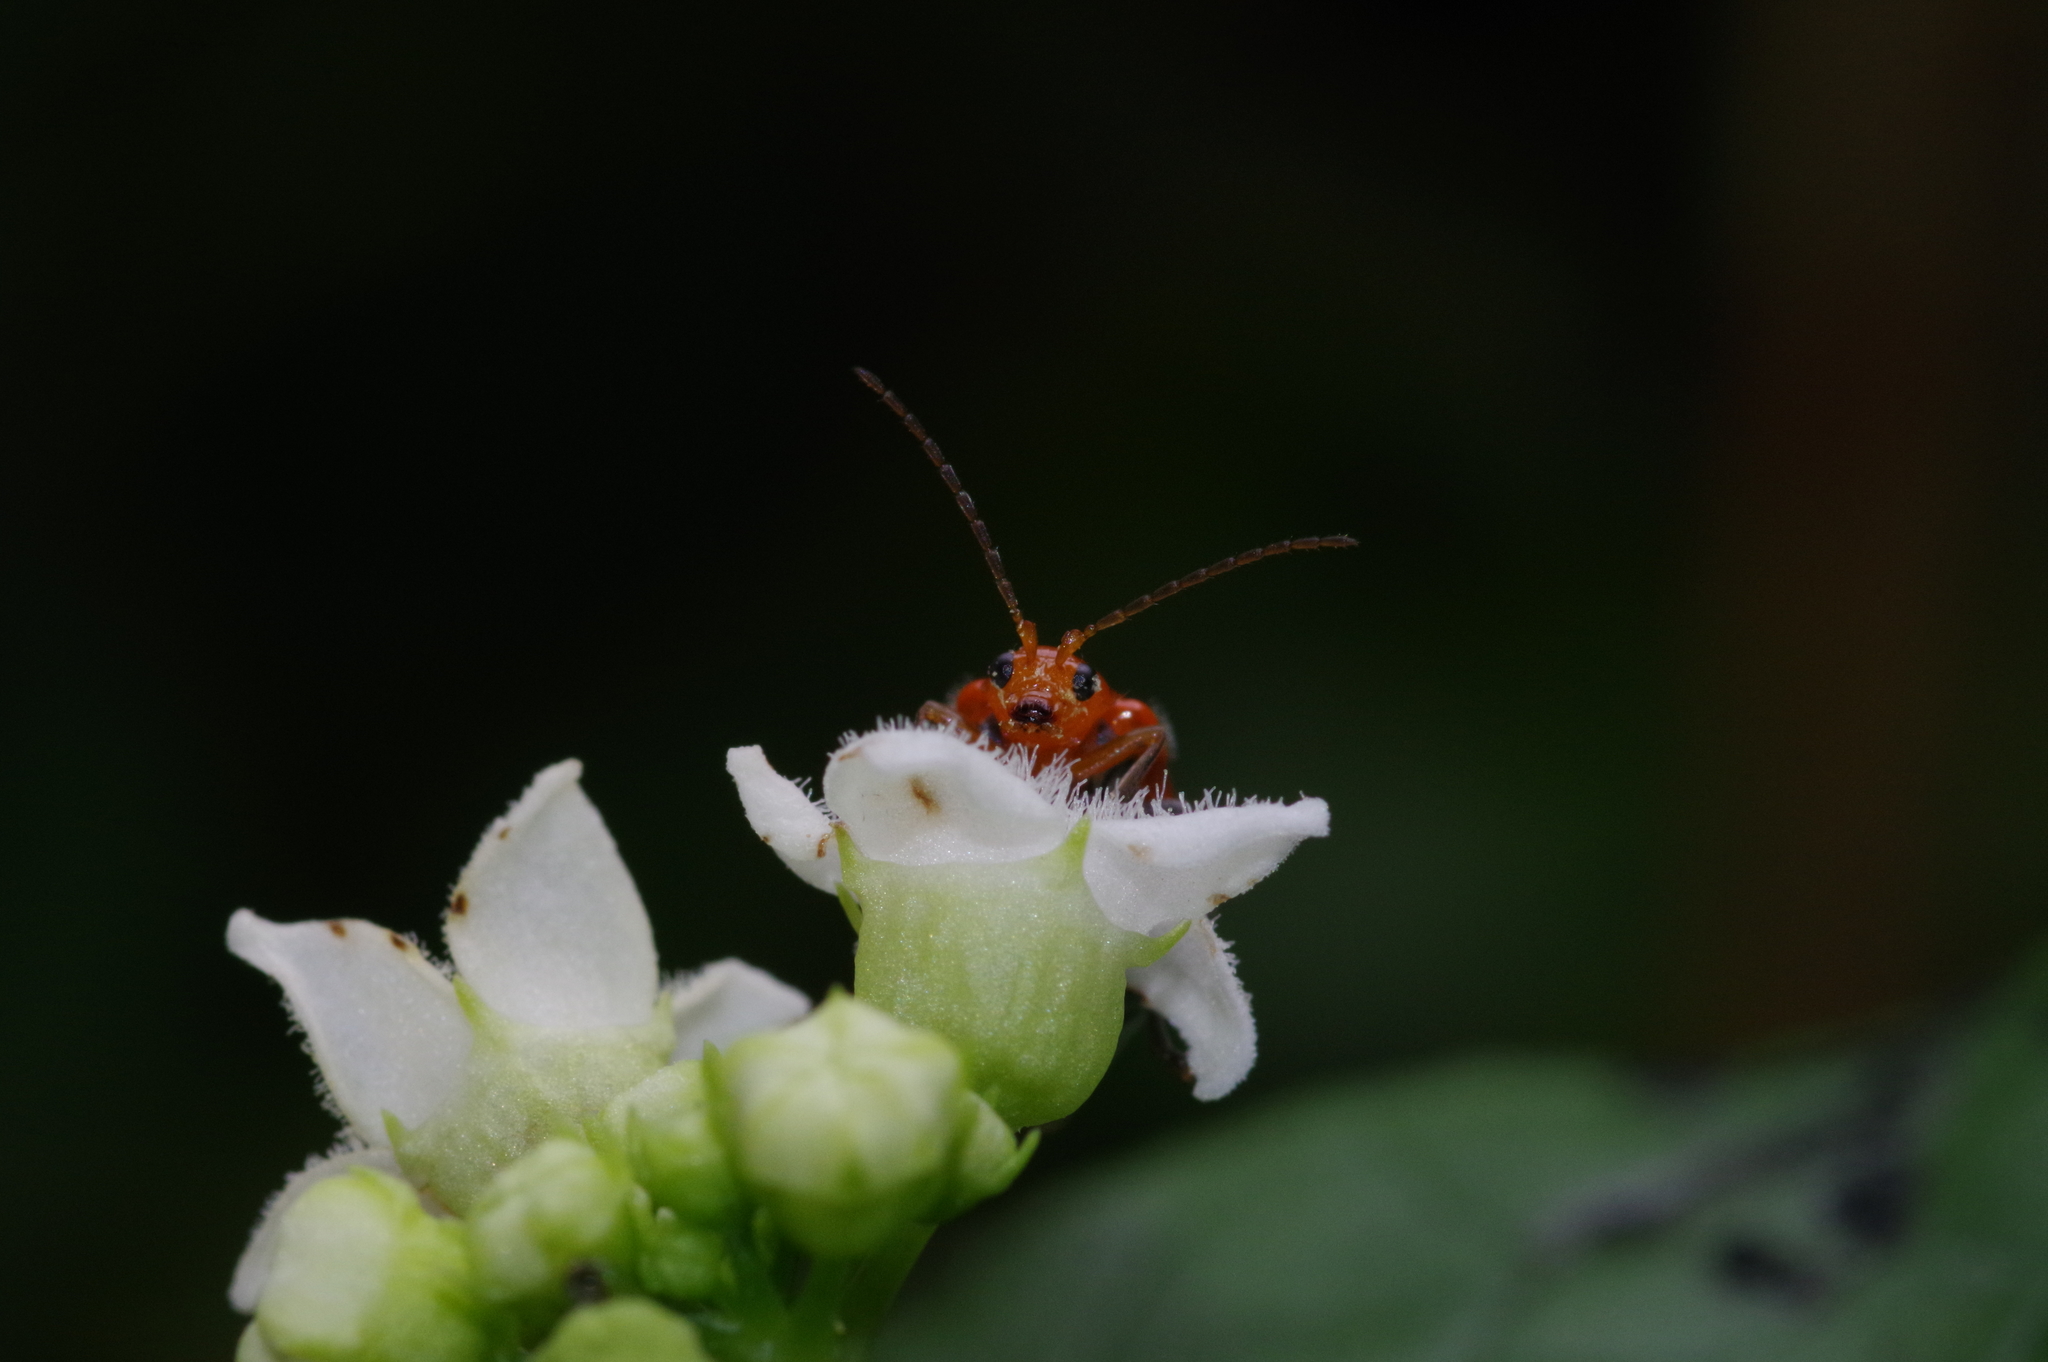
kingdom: Animalia
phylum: Arthropoda
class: Insecta
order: Coleoptera
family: Chrysomelidae
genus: Aulacophora
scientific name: Aulacophora indica
